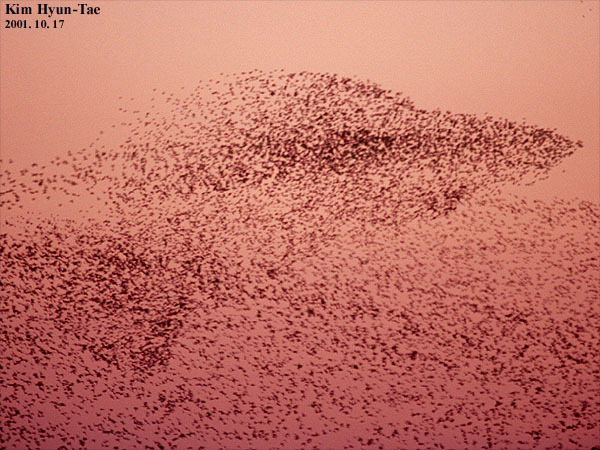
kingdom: Animalia
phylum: Chordata
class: Aves
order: Anseriformes
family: Anatidae
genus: Sibirionetta
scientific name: Sibirionetta formosa
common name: Baikal teal
